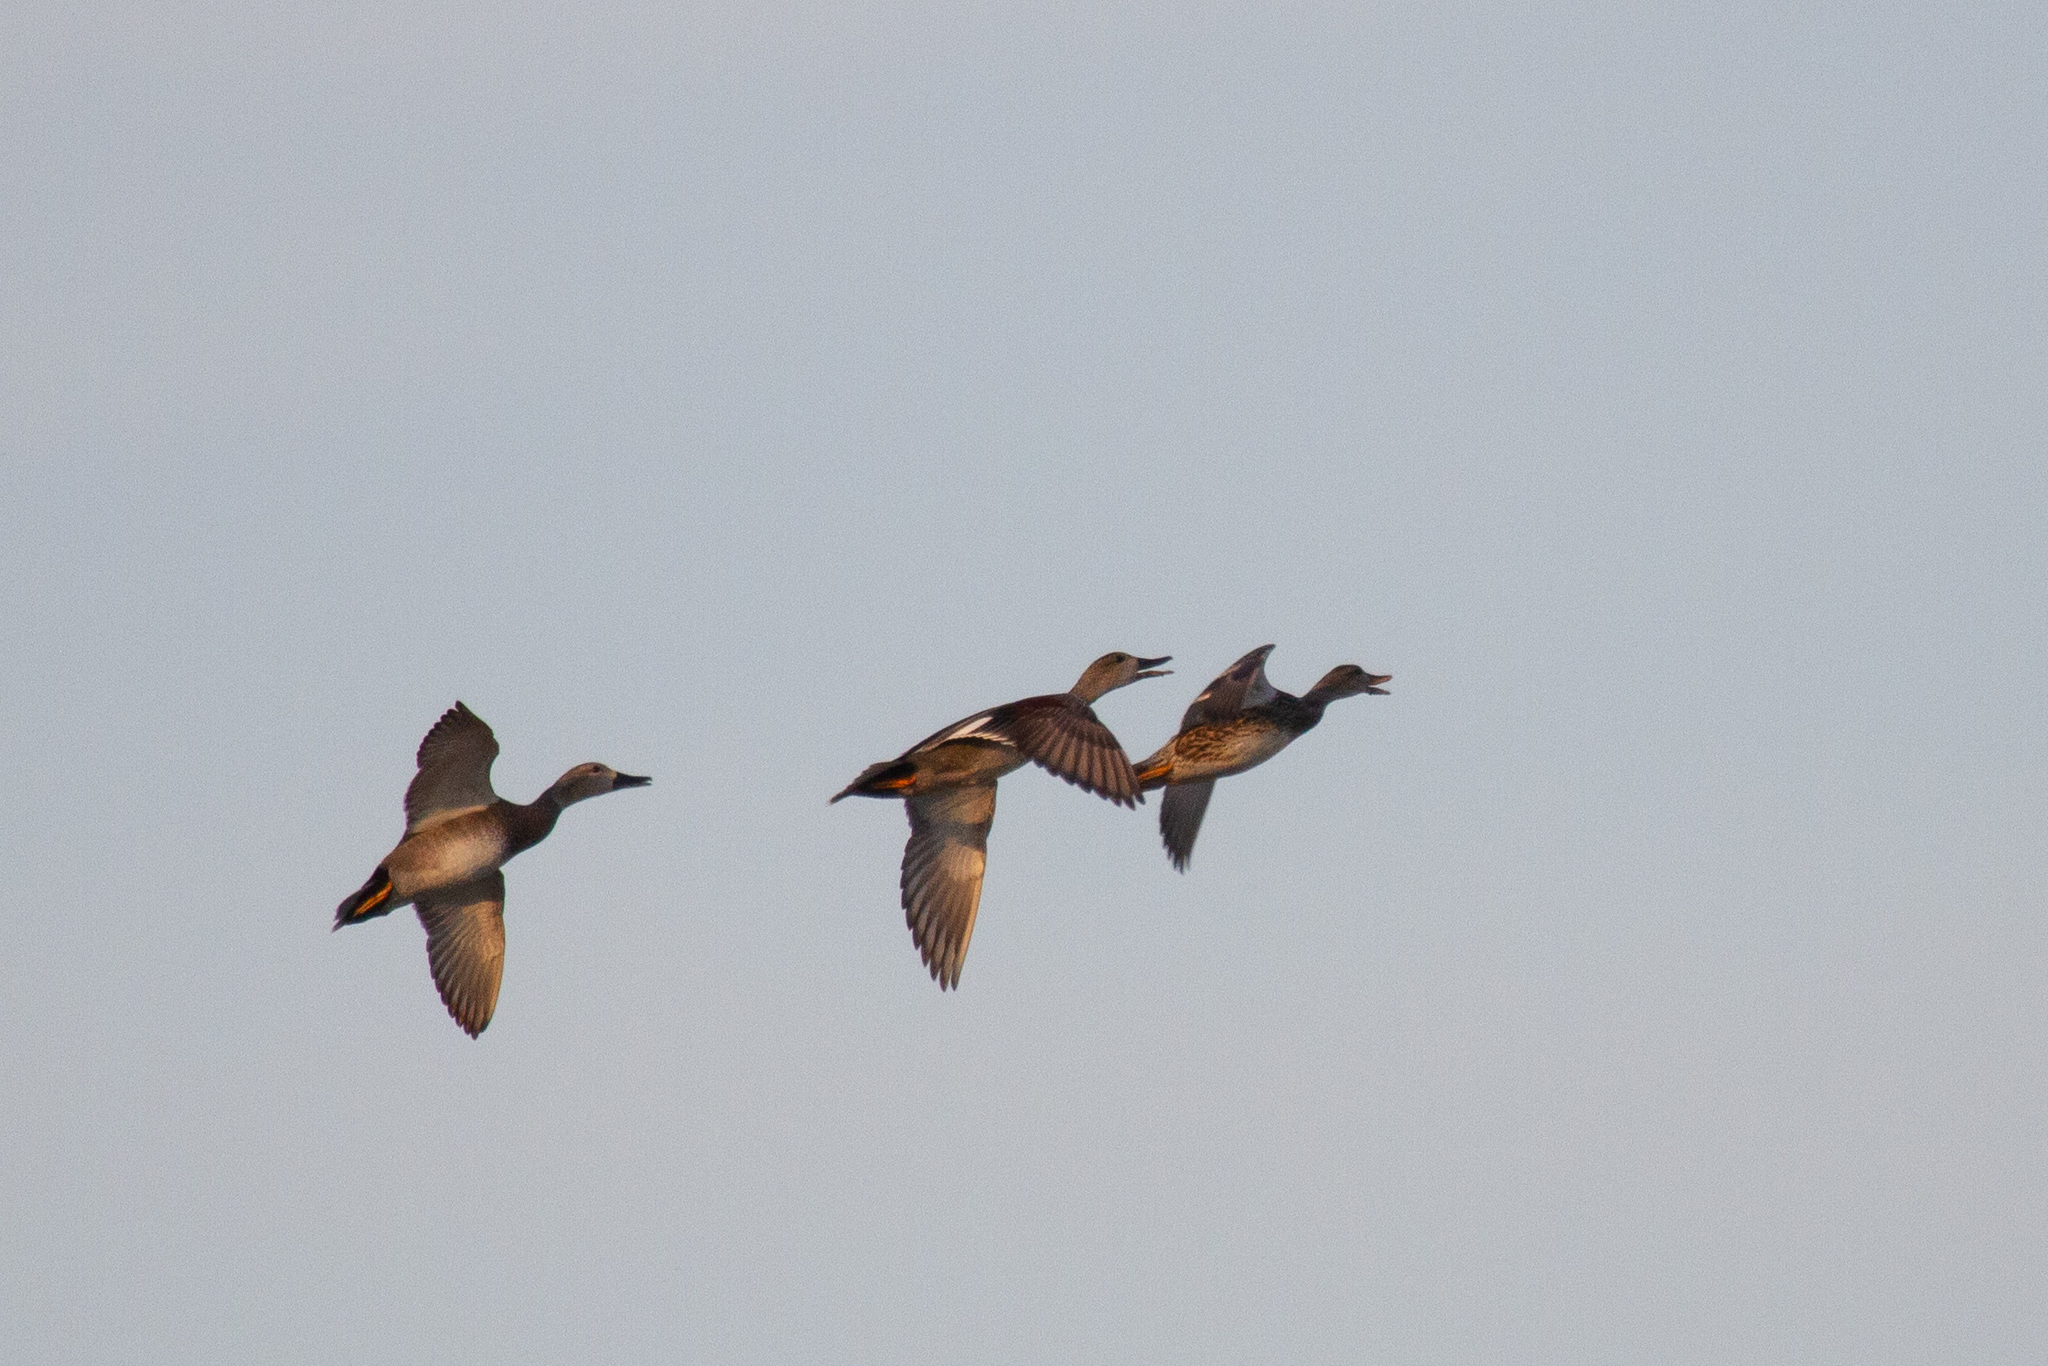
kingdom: Animalia
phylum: Chordata
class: Aves
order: Anseriformes
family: Anatidae
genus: Mareca
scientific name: Mareca strepera
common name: Gadwall
